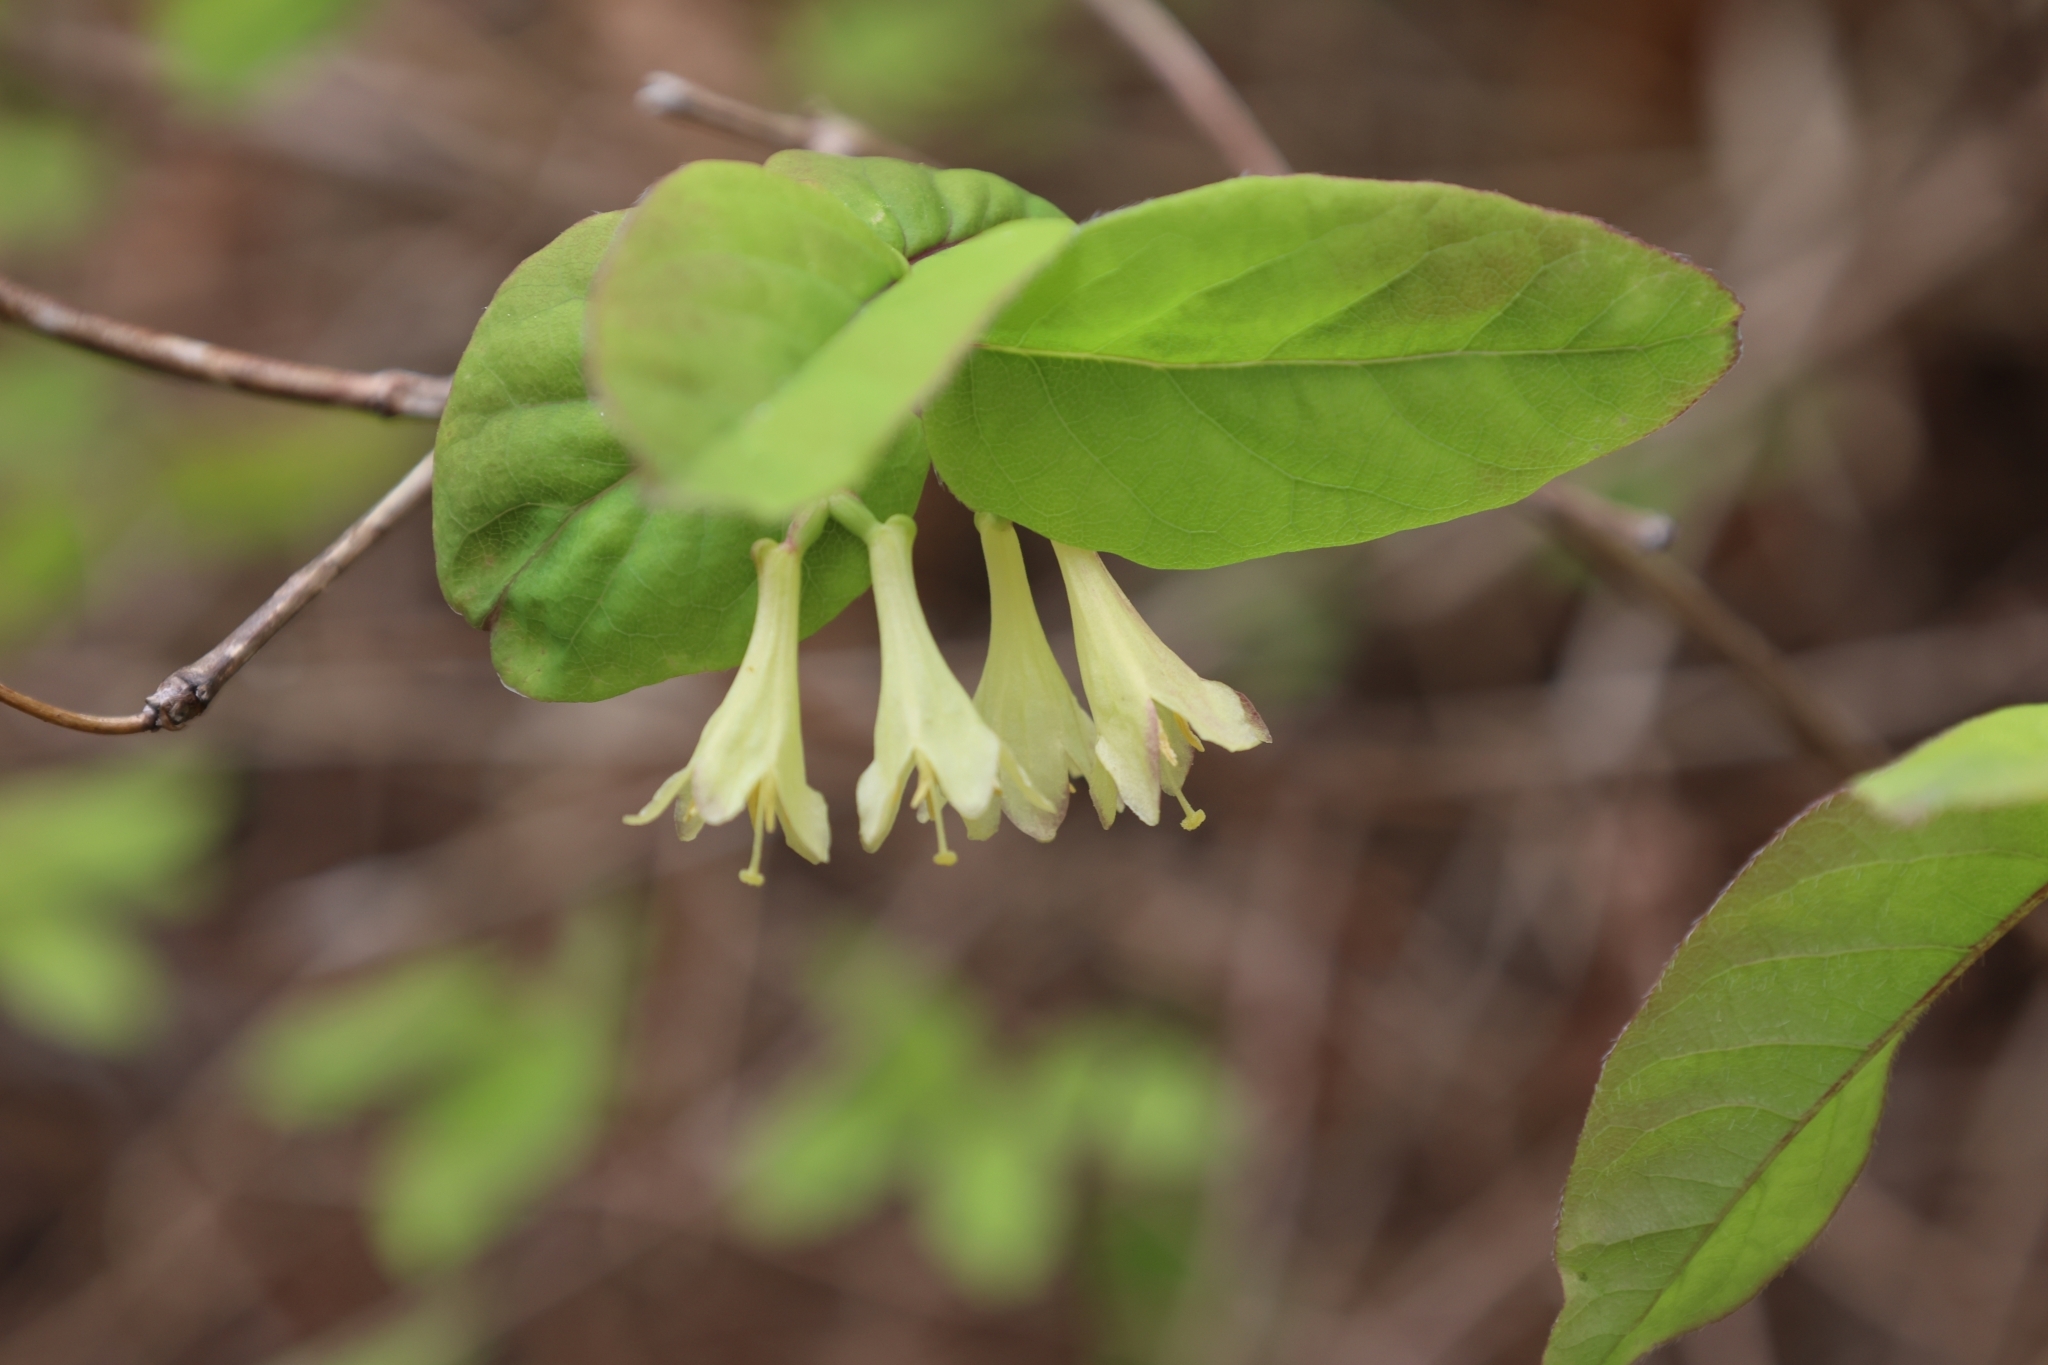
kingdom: Plantae
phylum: Tracheophyta
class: Magnoliopsida
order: Dipsacales
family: Caprifoliaceae
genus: Lonicera
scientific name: Lonicera canadensis
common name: American fly-honeysuckle
